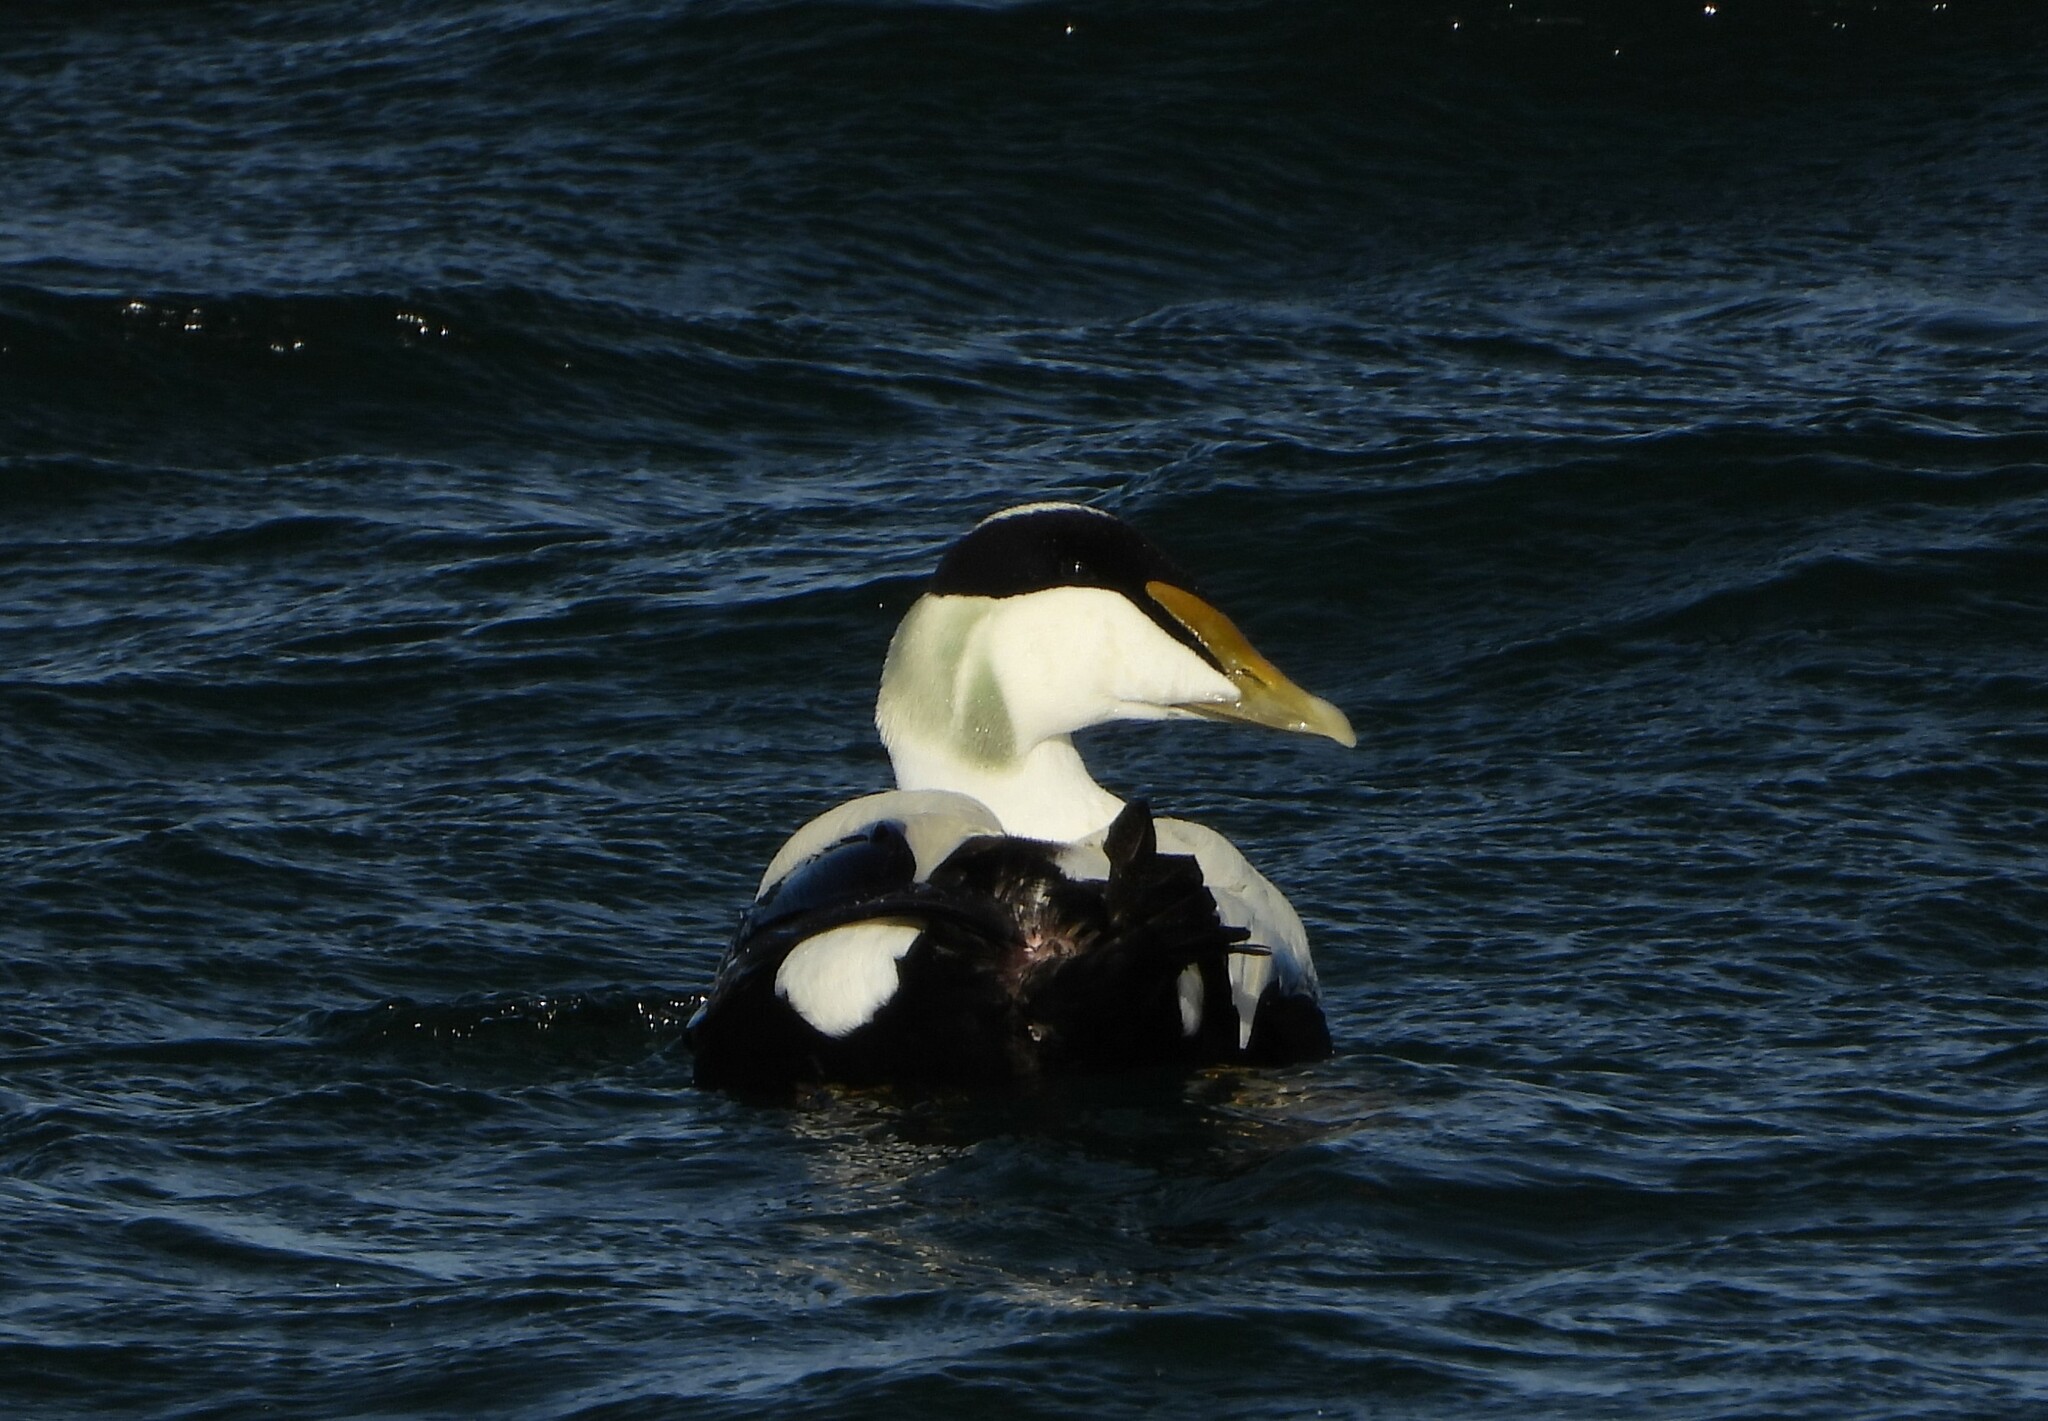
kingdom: Animalia
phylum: Chordata
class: Aves
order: Anseriformes
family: Anatidae
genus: Somateria
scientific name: Somateria mollissima
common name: Common eider
